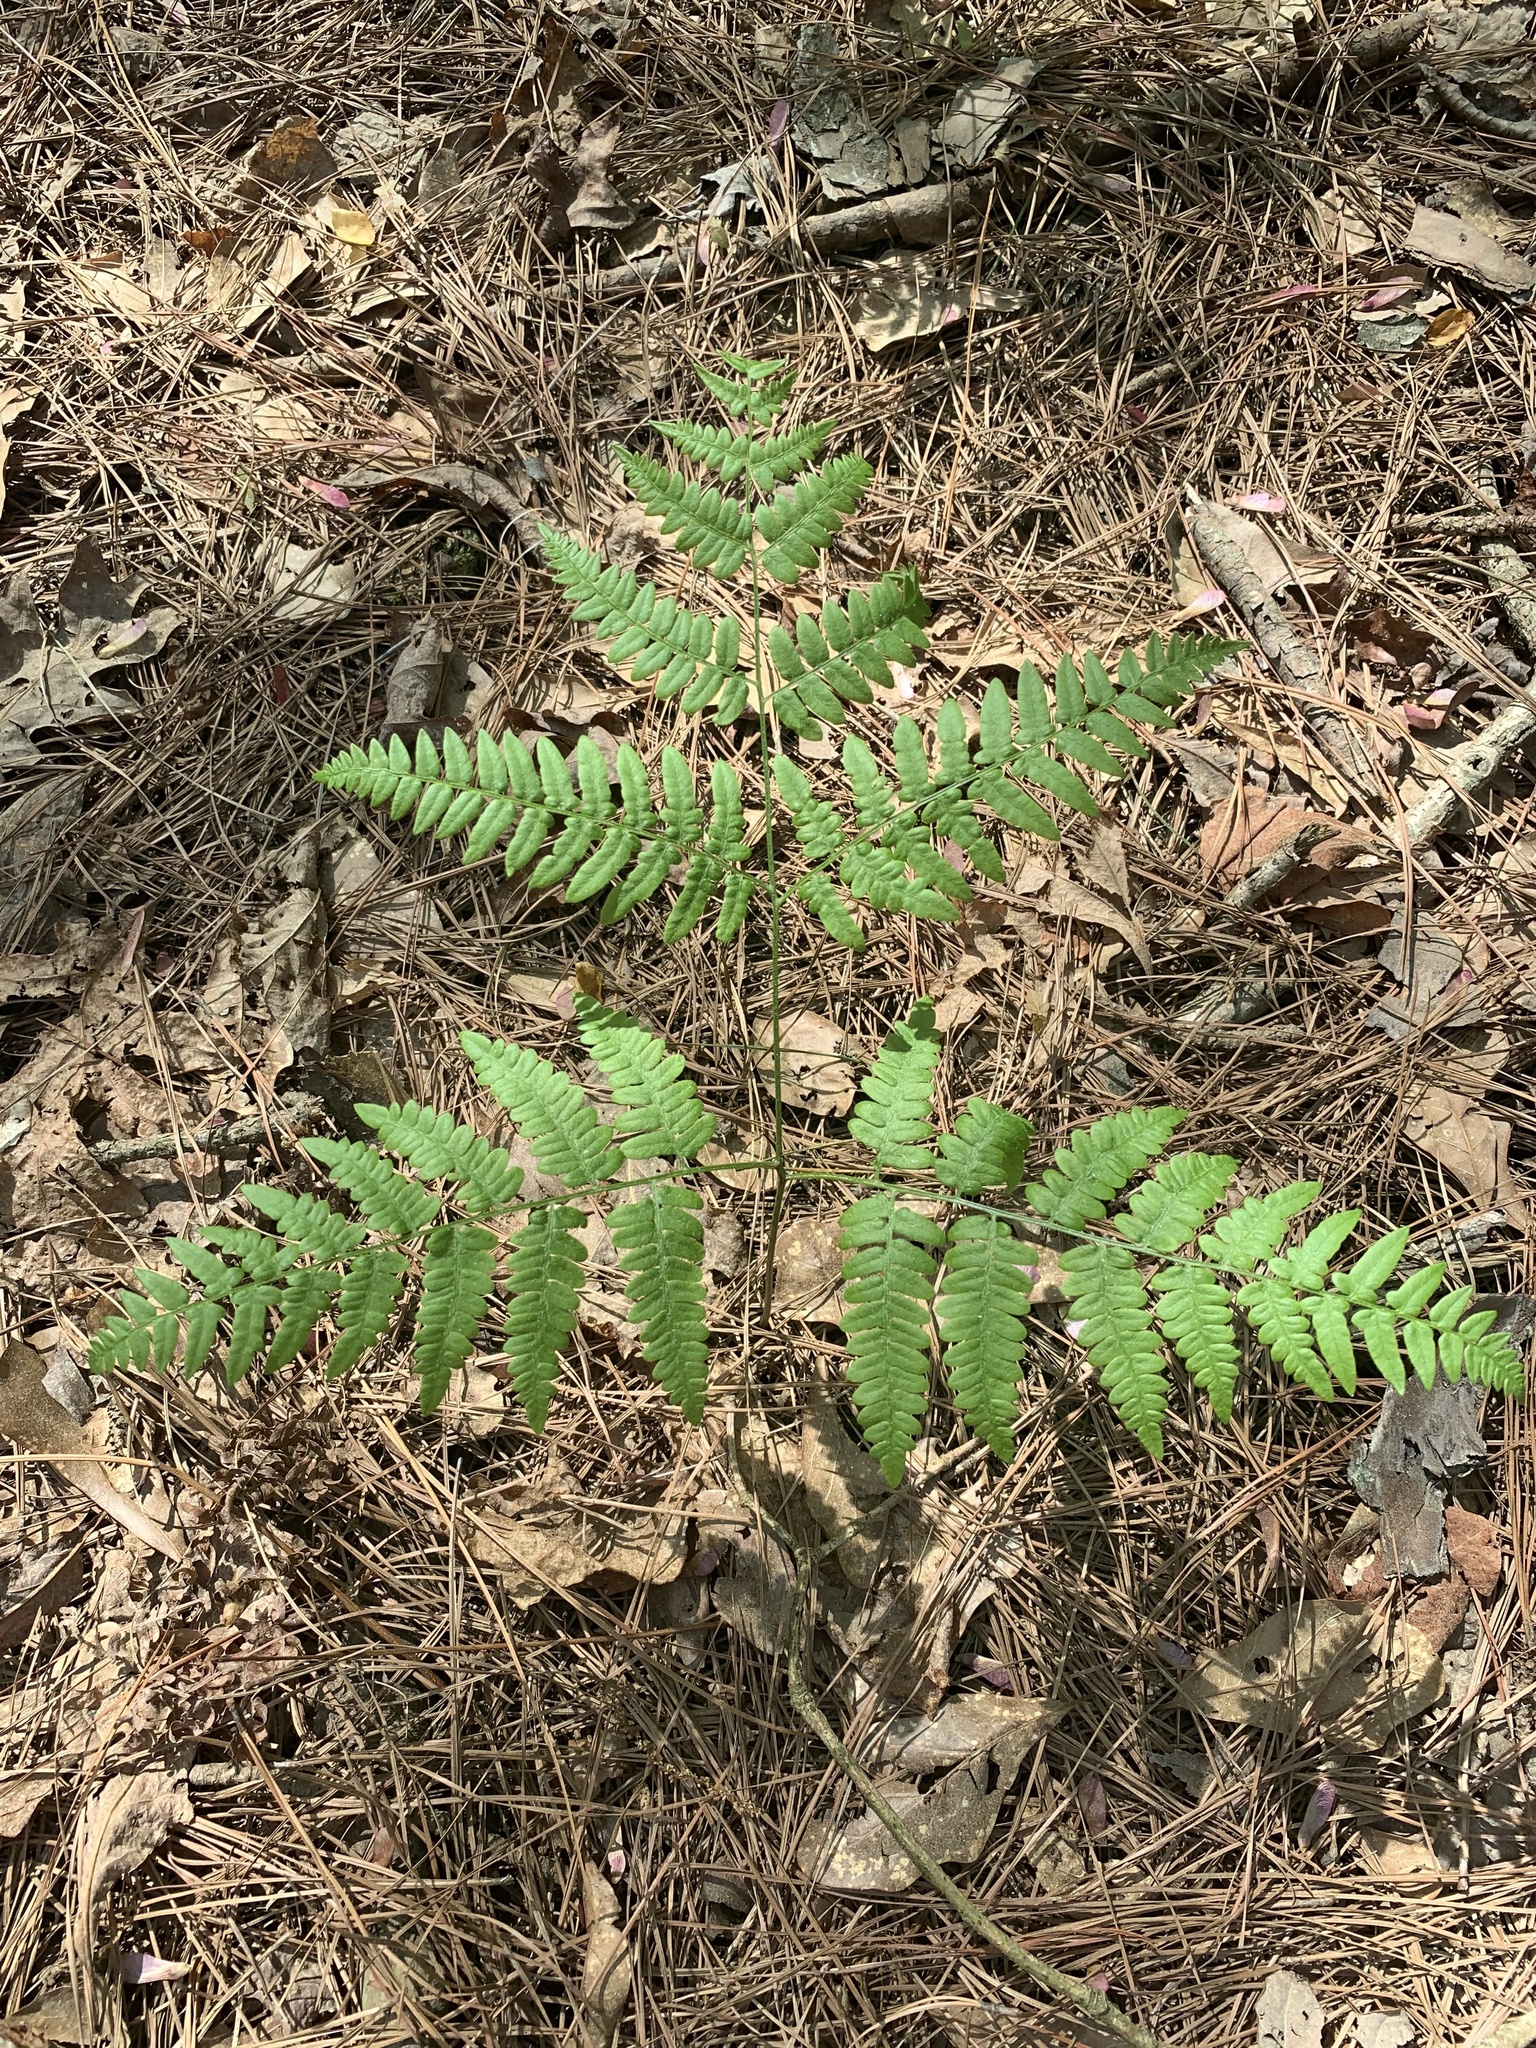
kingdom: Plantae
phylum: Tracheophyta
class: Polypodiopsida
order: Polypodiales
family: Dennstaedtiaceae
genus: Pteridium
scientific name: Pteridium
